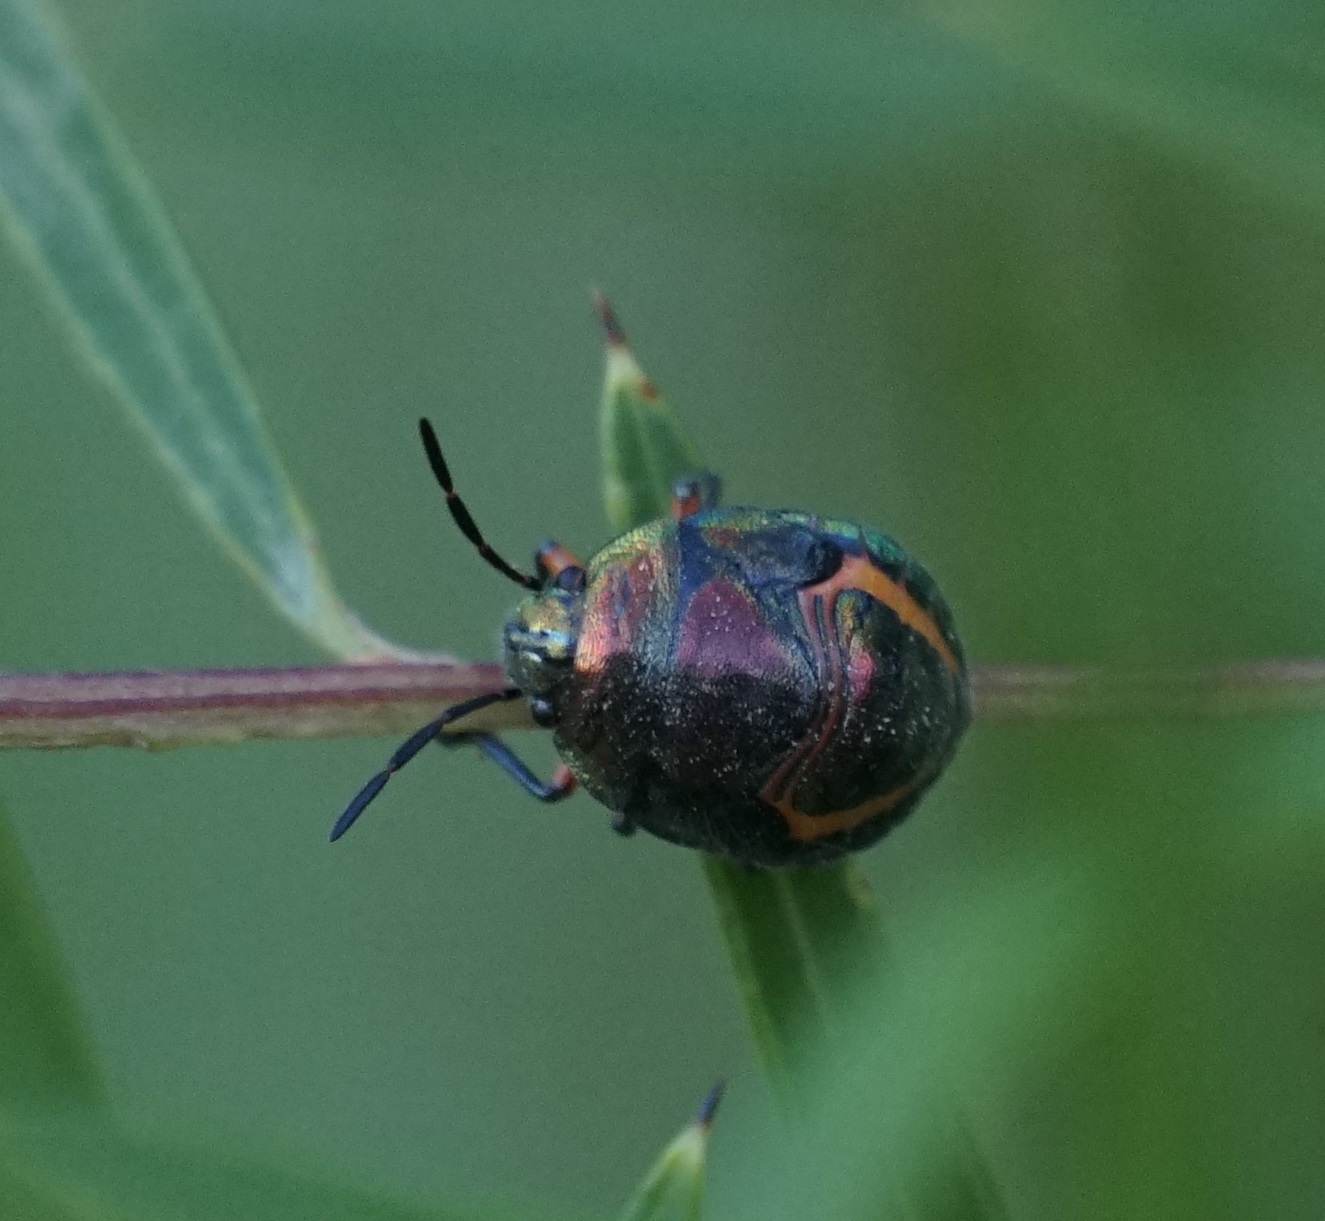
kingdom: Animalia
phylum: Arthropoda
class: Insecta
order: Hemiptera
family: Scutelleridae
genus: Lampromicra
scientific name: Lampromicra senator
